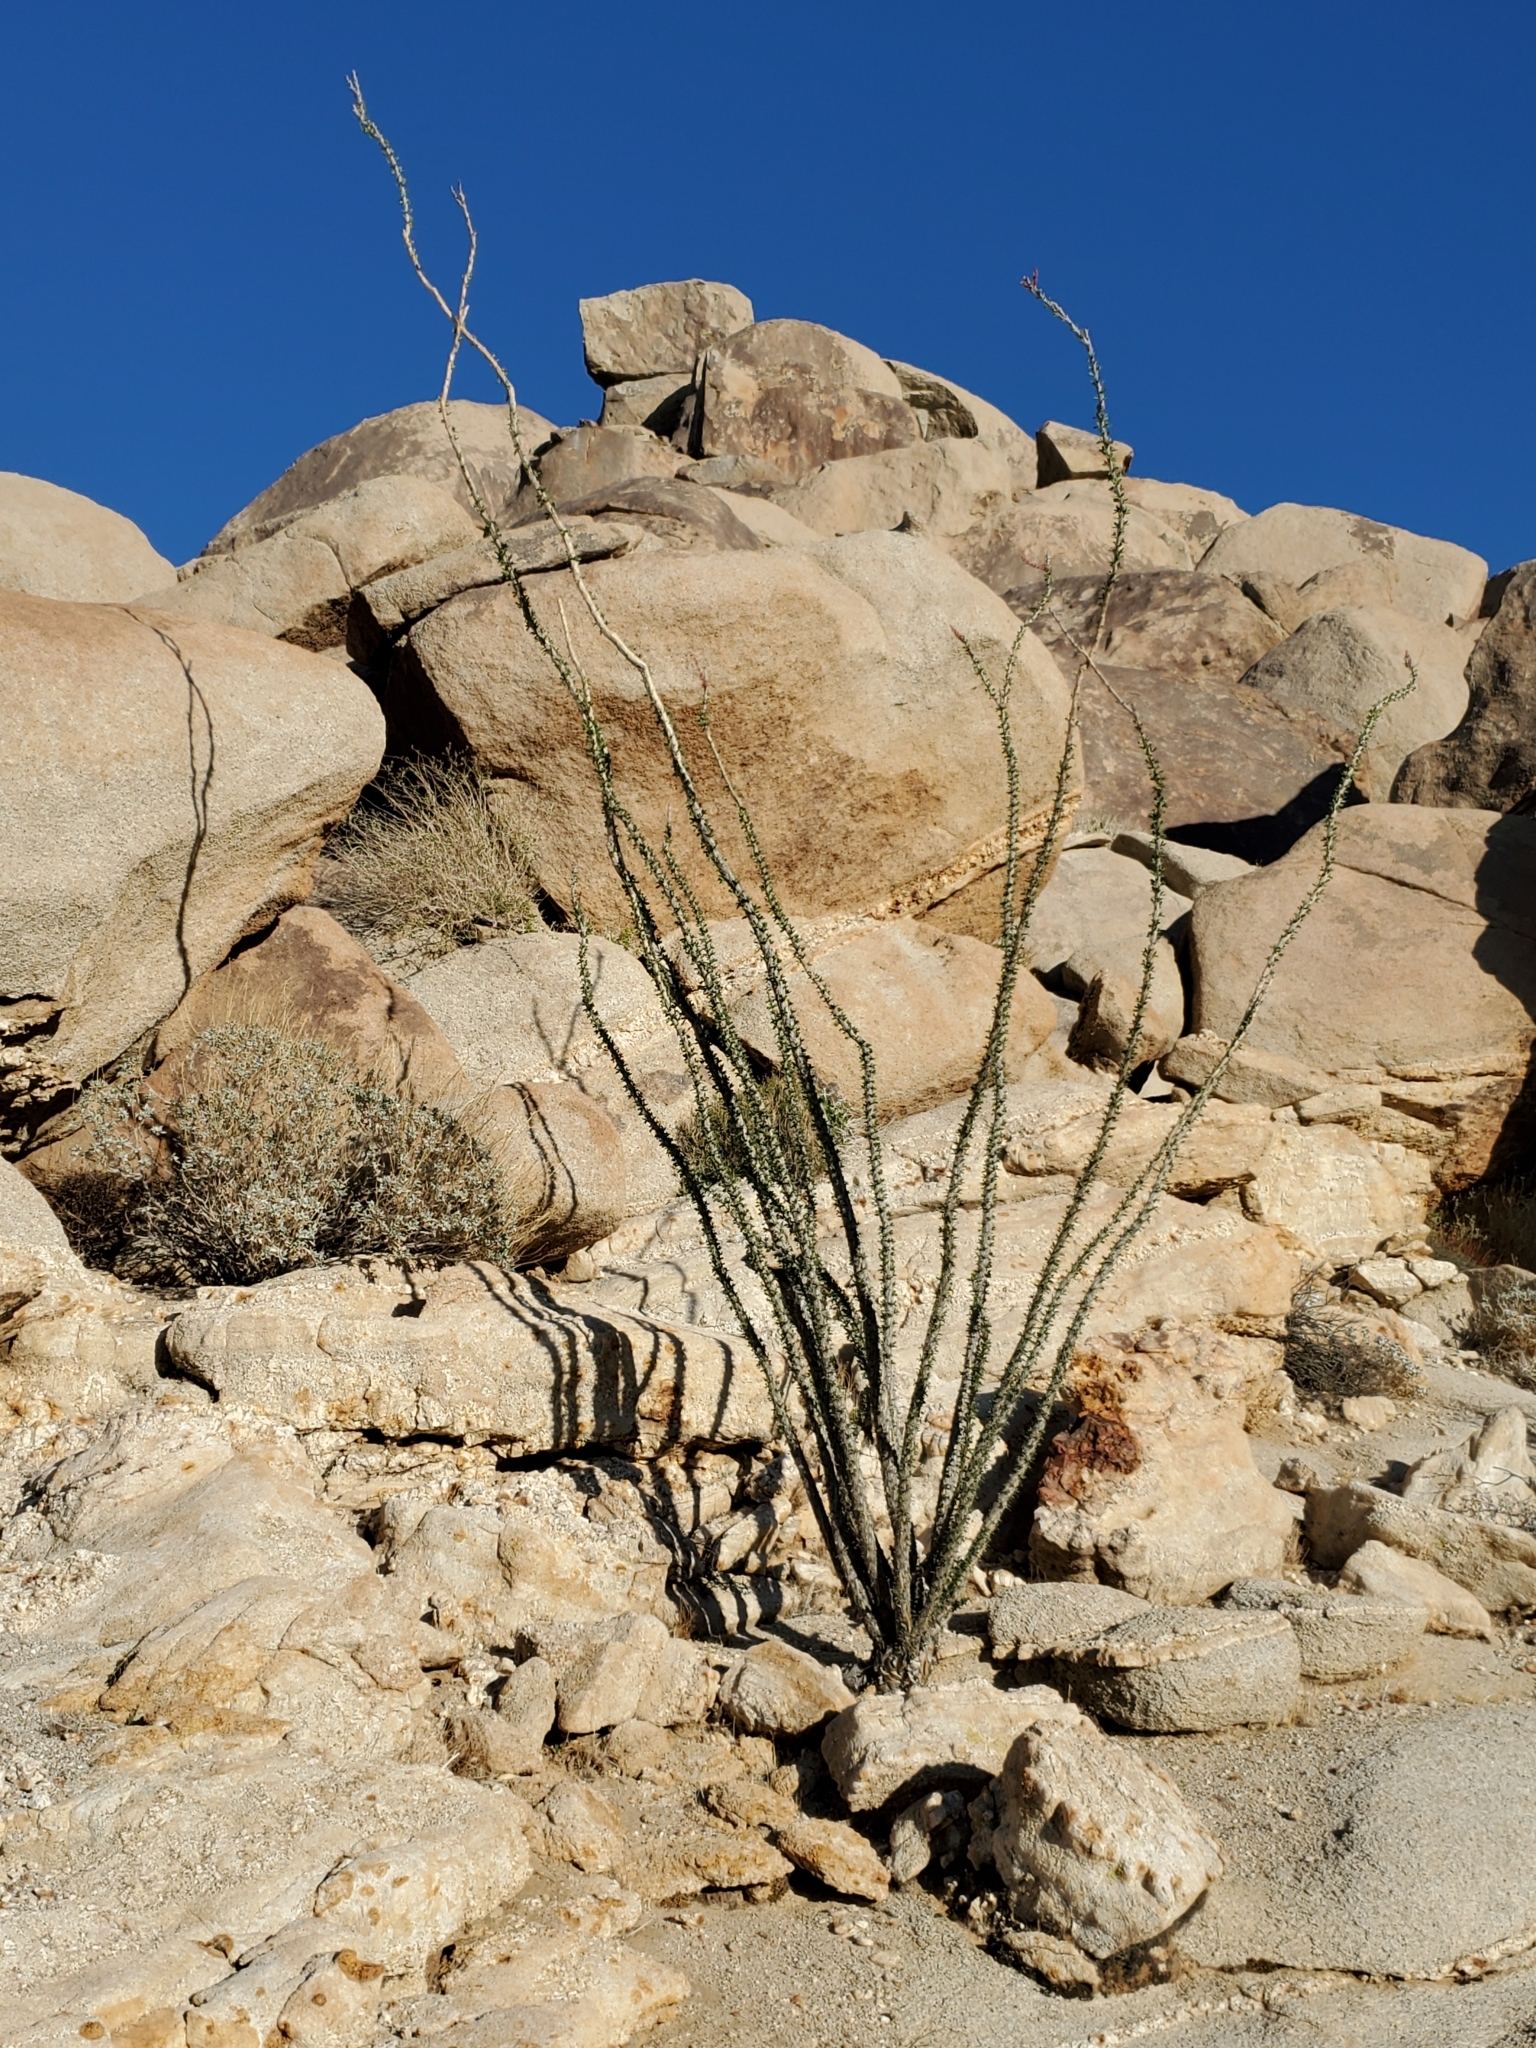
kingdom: Plantae
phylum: Tracheophyta
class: Magnoliopsida
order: Ericales
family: Fouquieriaceae
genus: Fouquieria
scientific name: Fouquieria splendens
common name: Vine-cactus
